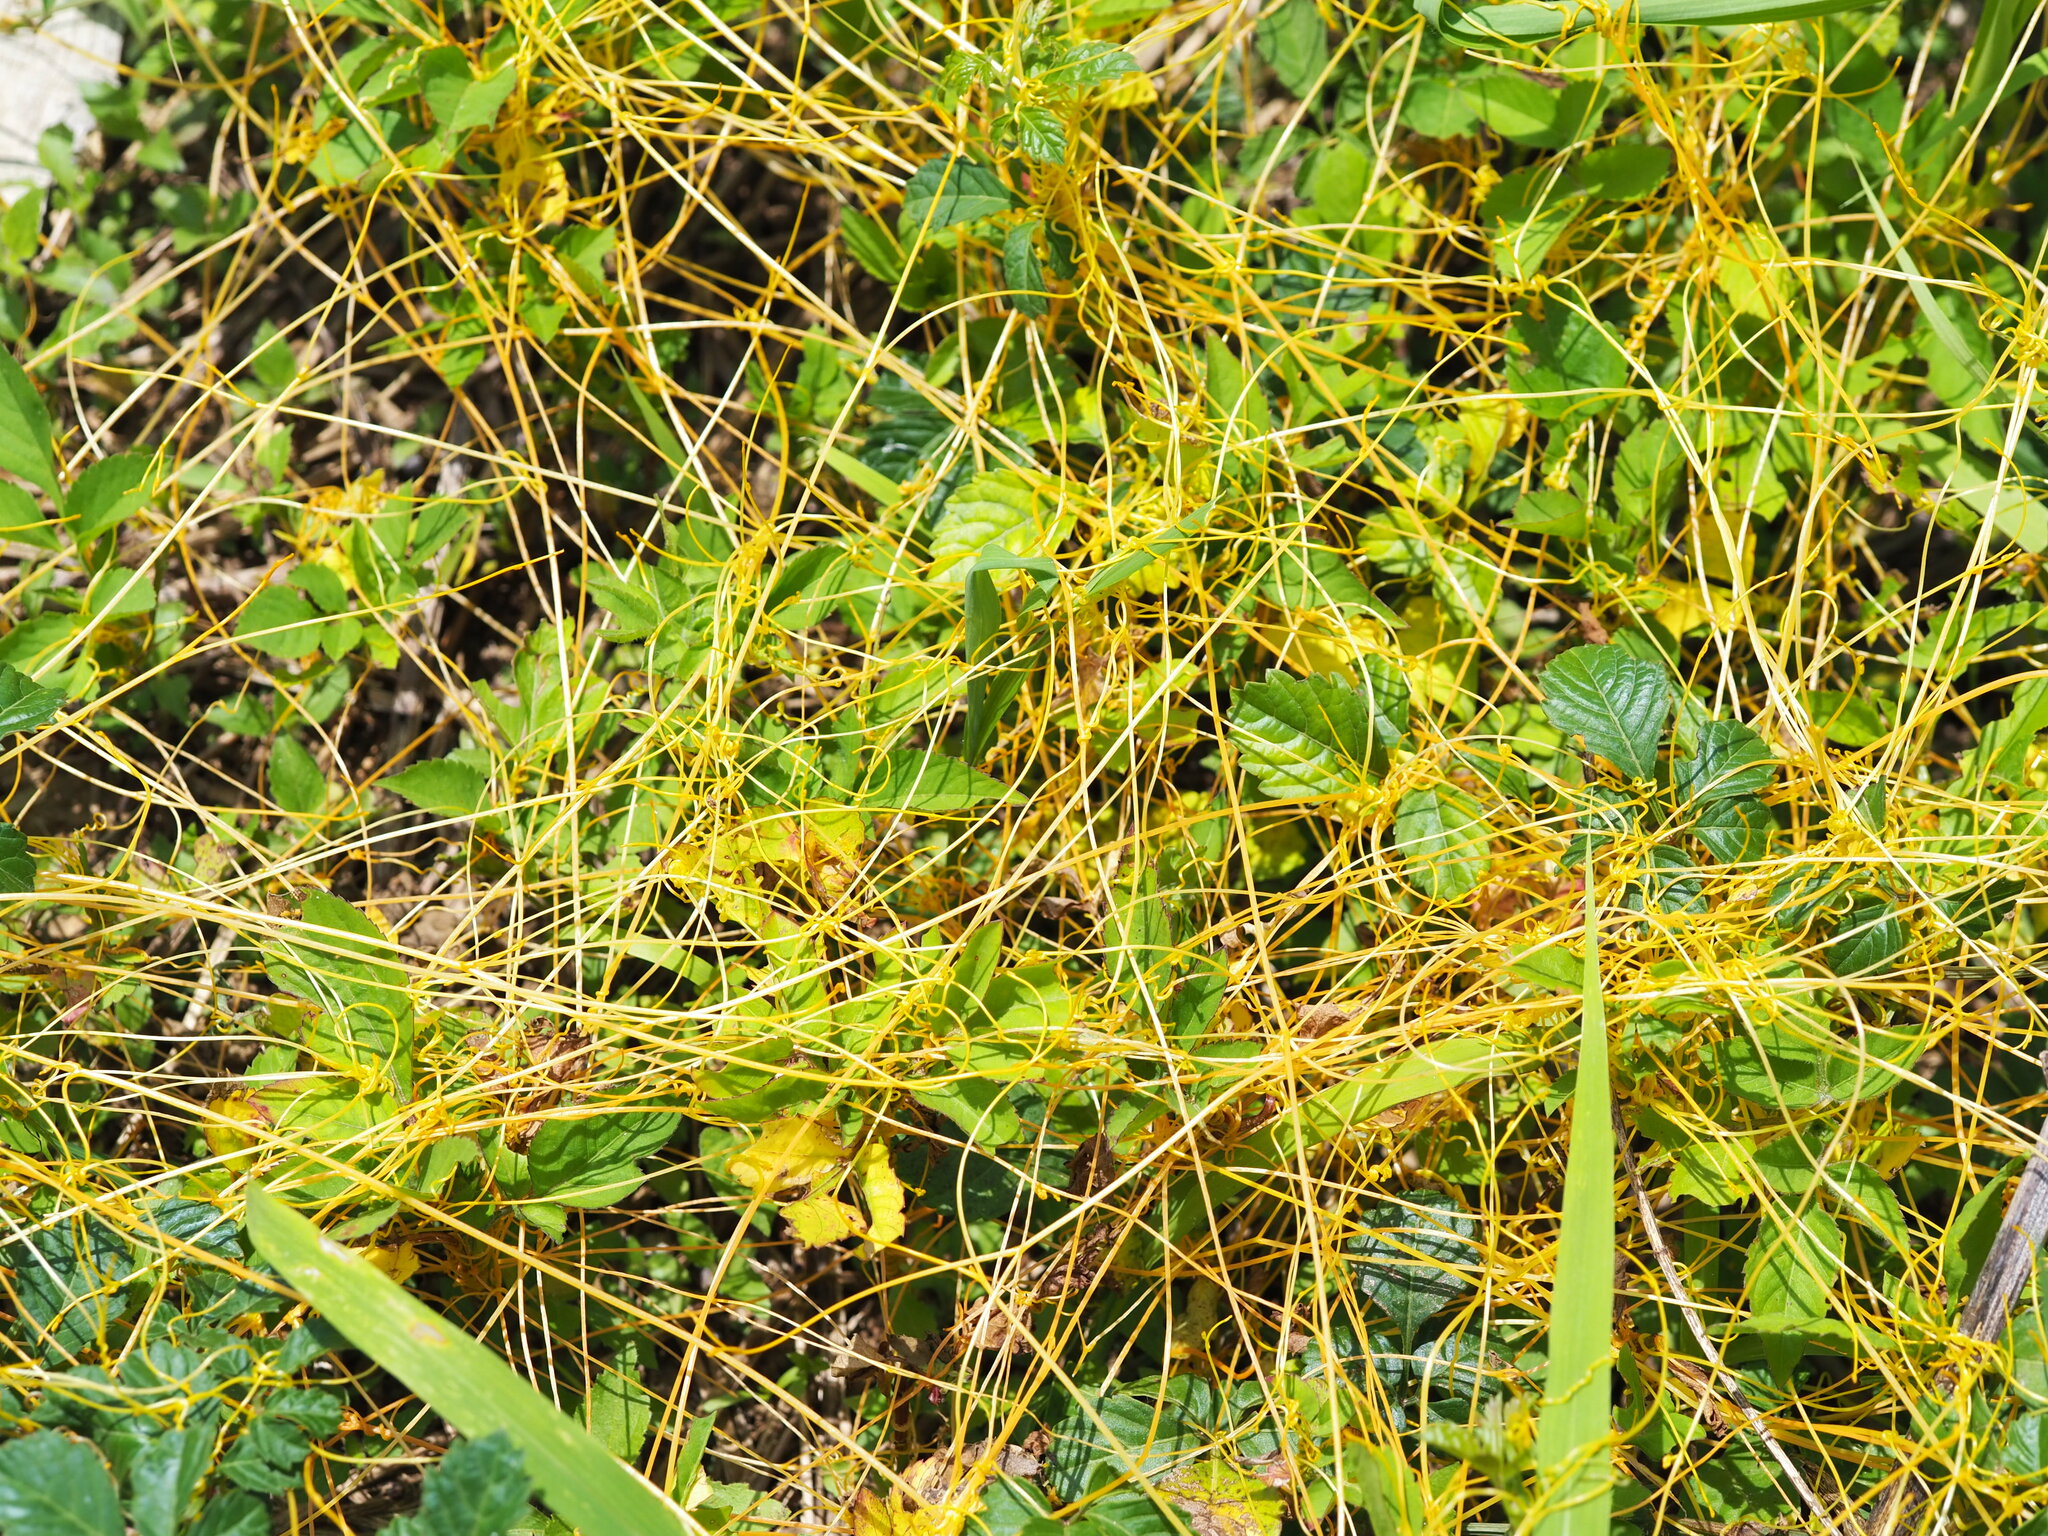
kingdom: Plantae
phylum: Tracheophyta
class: Magnoliopsida
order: Solanales
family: Convolvulaceae
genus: Cuscuta
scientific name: Cuscuta campestris
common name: Yellow dodder
